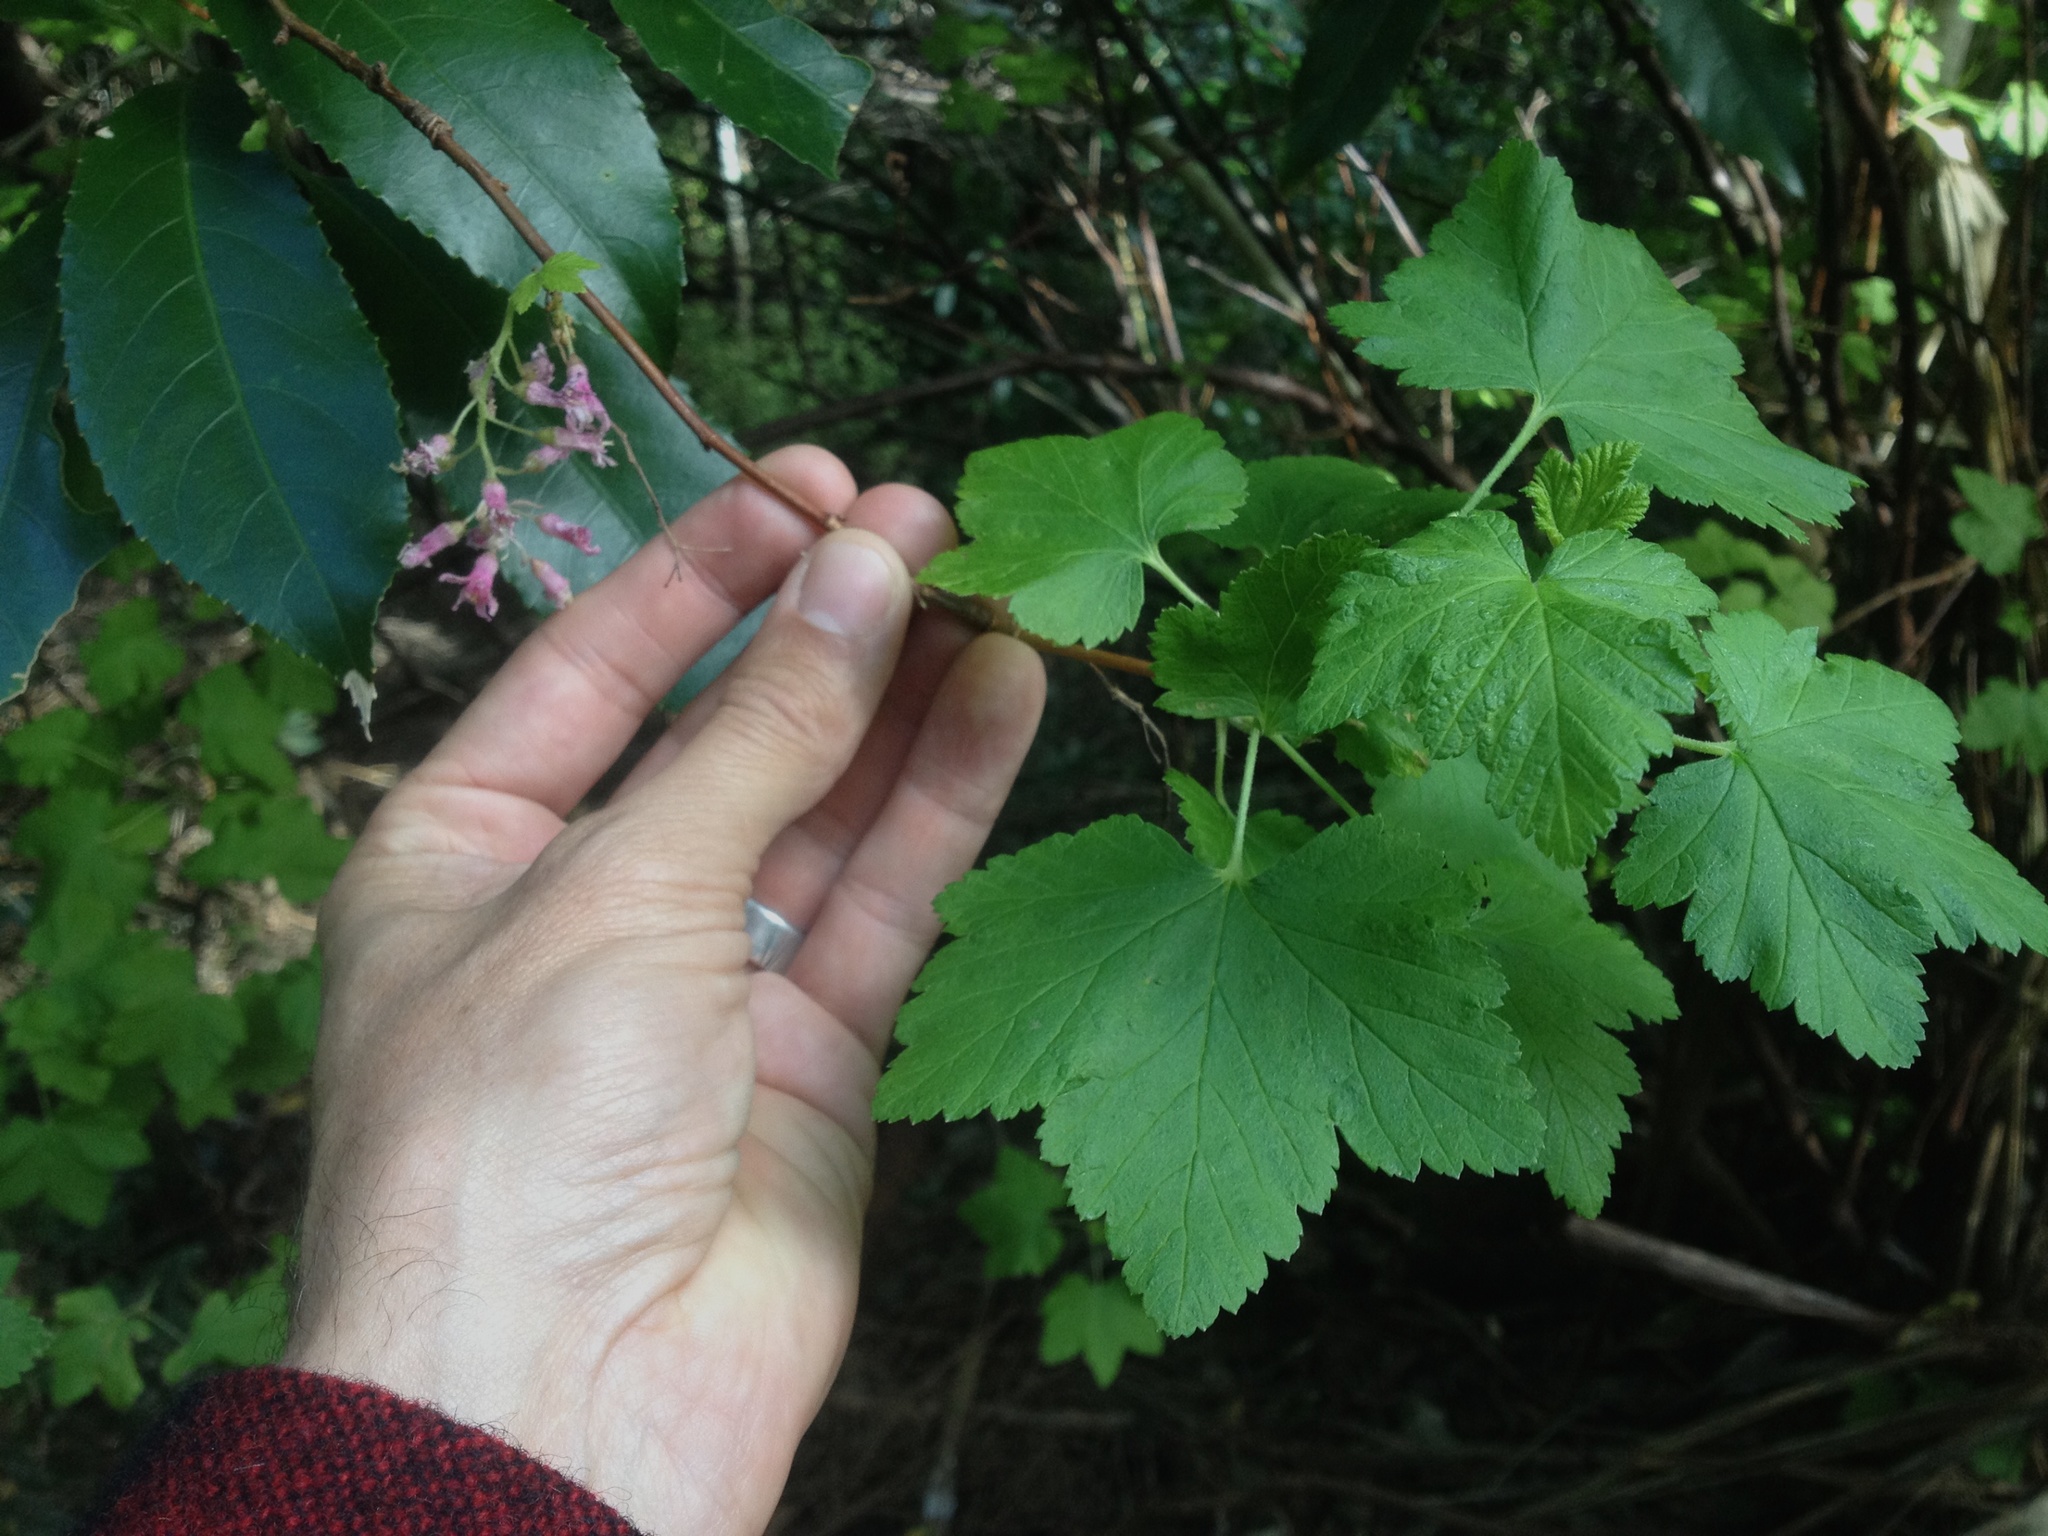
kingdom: Plantae
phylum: Tracheophyta
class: Magnoliopsida
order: Saxifragales
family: Grossulariaceae
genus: Ribes
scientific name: Ribes sanguineum
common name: Flowering currant
